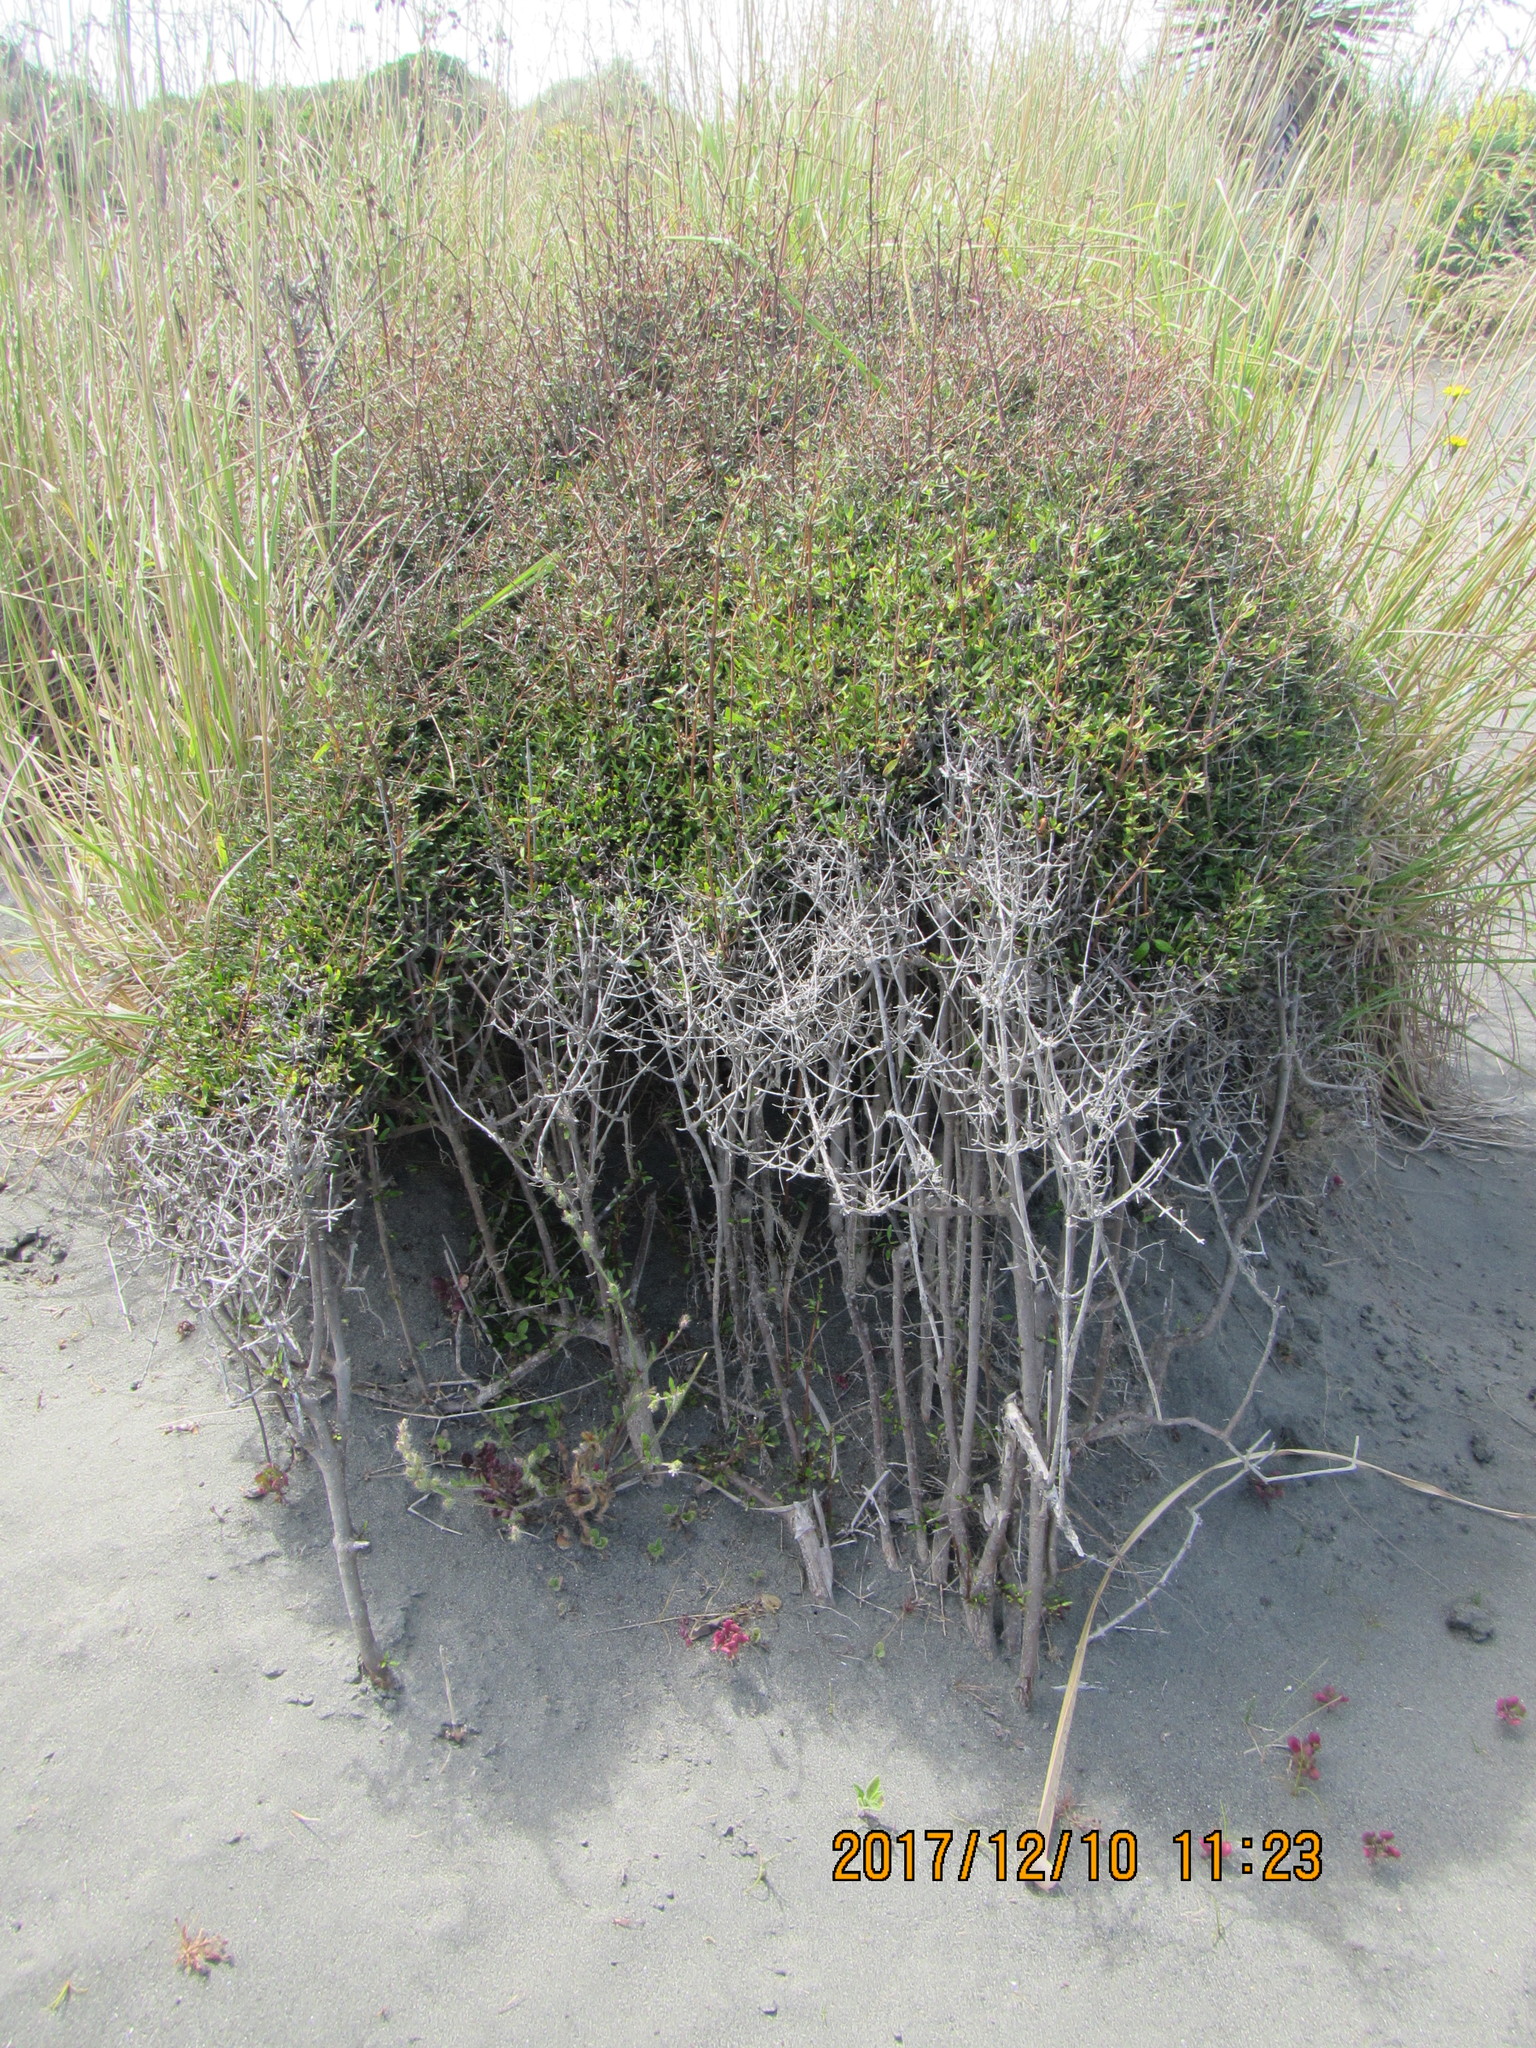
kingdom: Plantae
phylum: Tracheophyta
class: Magnoliopsida
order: Gentianales
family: Rubiaceae
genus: Coprosma
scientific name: Coprosma propinqua
